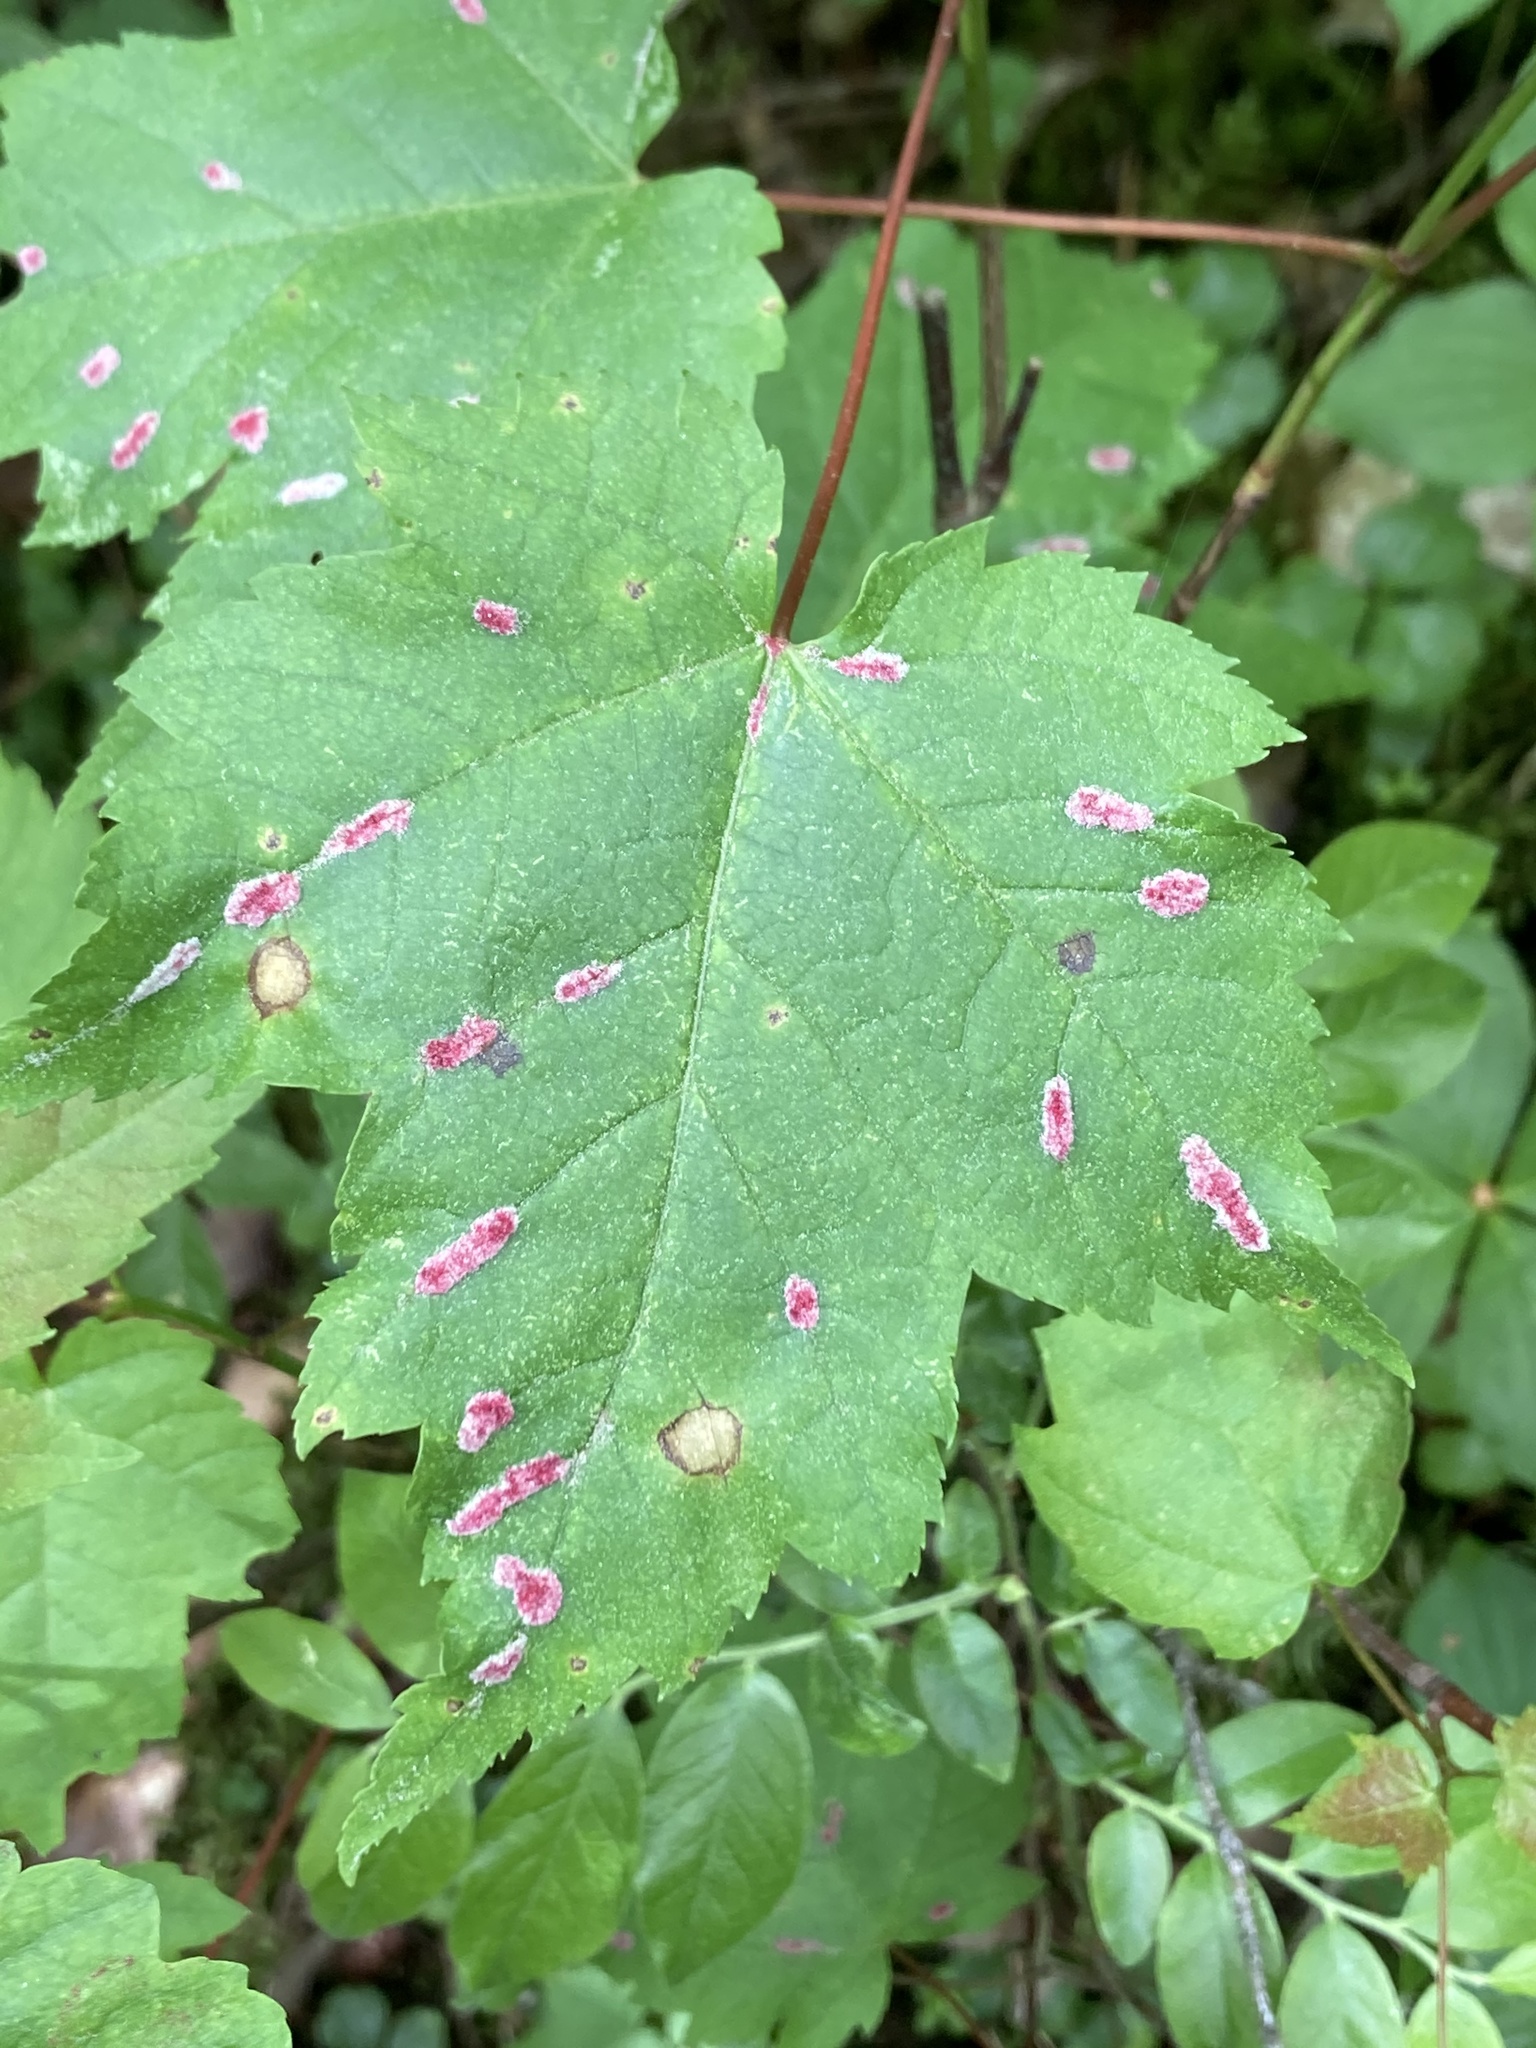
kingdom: Animalia
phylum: Arthropoda
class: Arachnida
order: Trombidiformes
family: Eriophyidae
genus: Aculus
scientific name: Aculus
